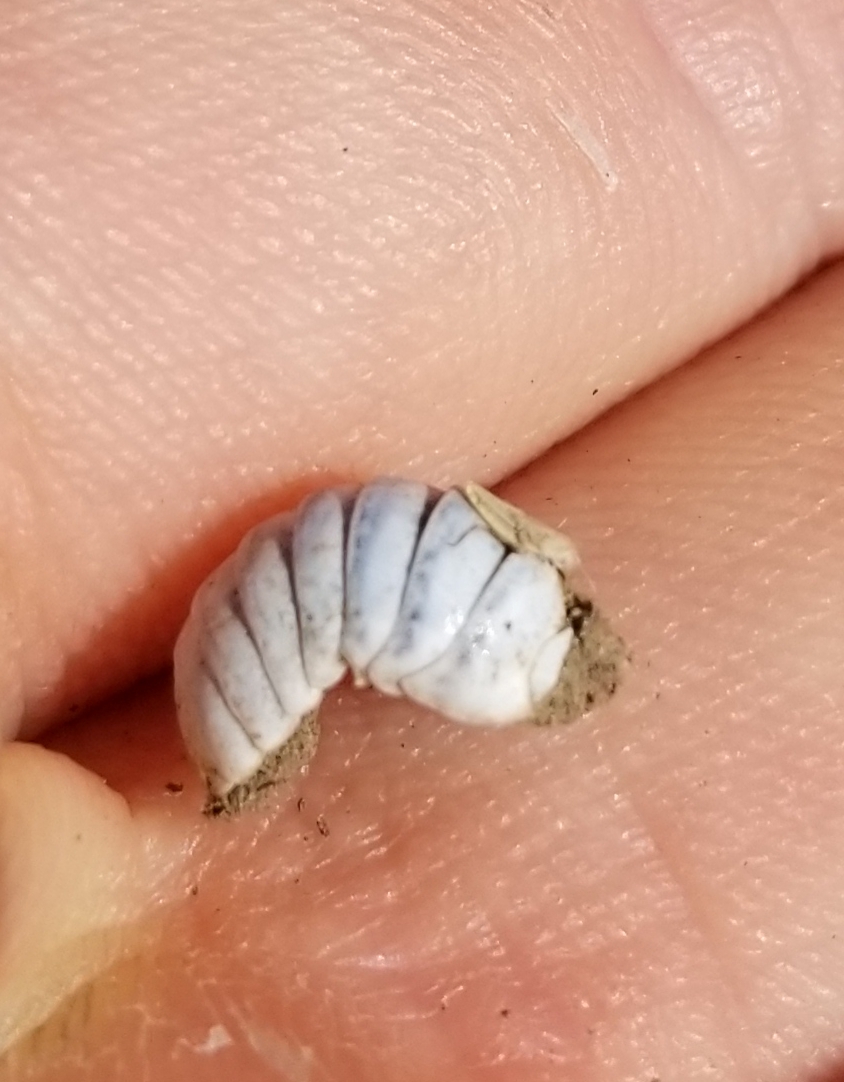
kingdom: Animalia
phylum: Arthropoda
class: Malacostraca
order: Isopoda
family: Armadillidiidae
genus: Armadillidium
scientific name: Armadillidium vulgare
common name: Common pill woodlouse
